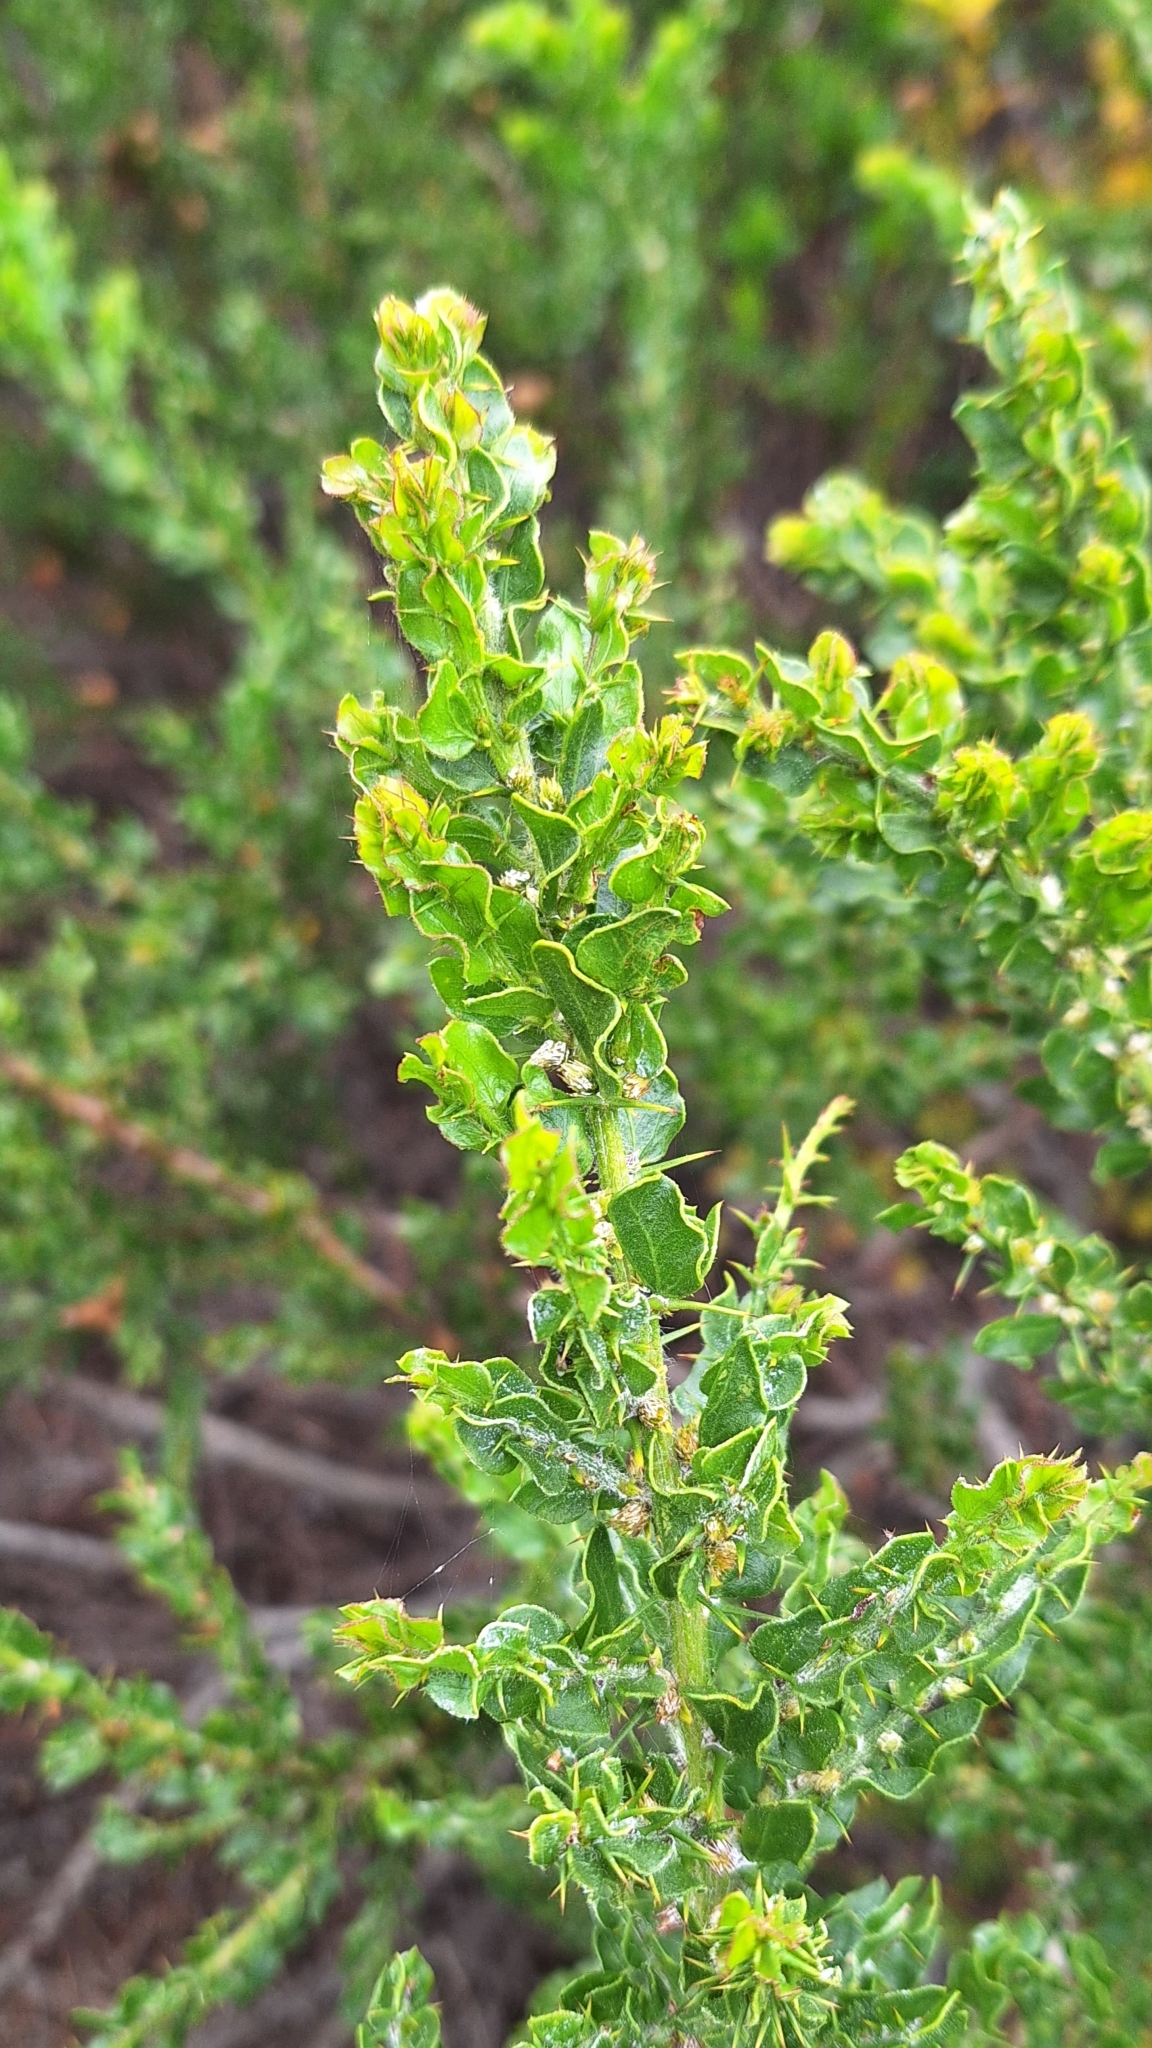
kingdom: Plantae
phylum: Tracheophyta
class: Magnoliopsida
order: Fabales
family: Fabaceae
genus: Acacia
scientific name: Acacia paradoxa
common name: Paradox acacia
